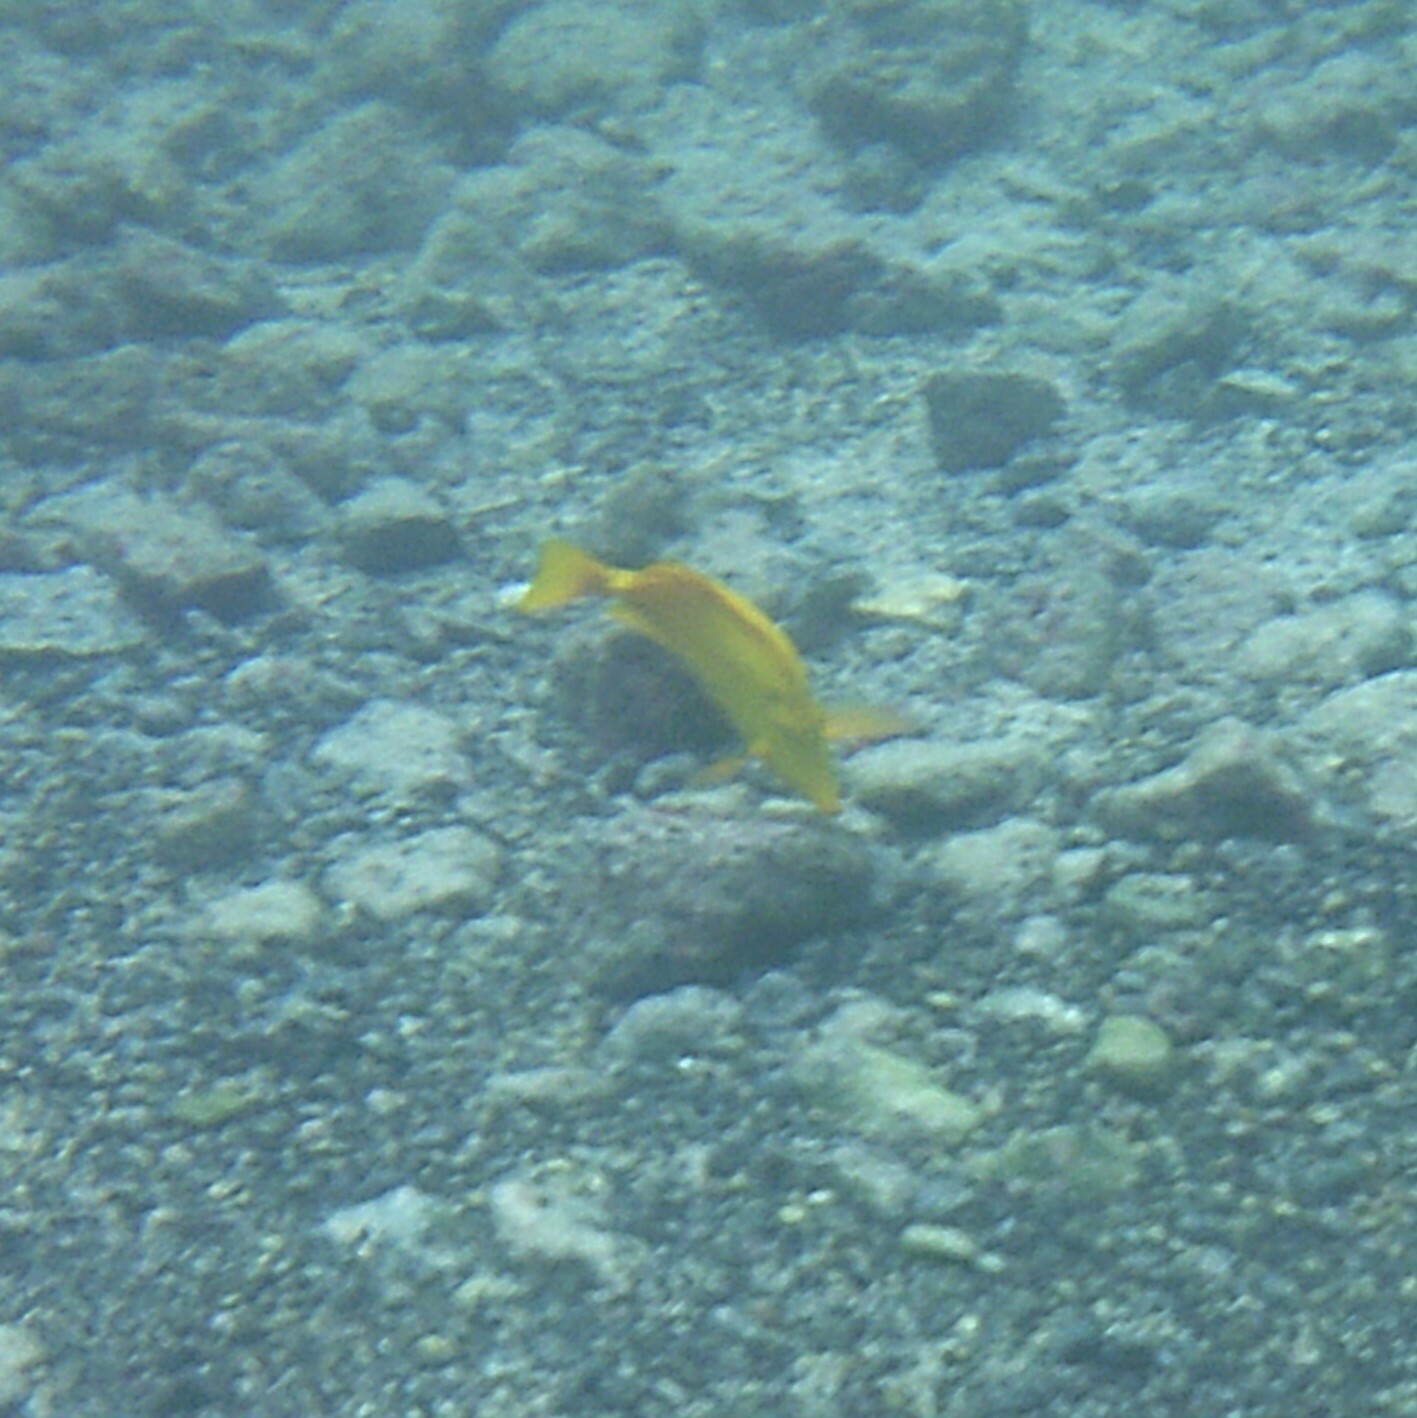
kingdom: Animalia
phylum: Chordata
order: Perciformes
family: Acanthuridae
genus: Zebrasoma
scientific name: Zebrasoma flavescens
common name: Yellow tang
